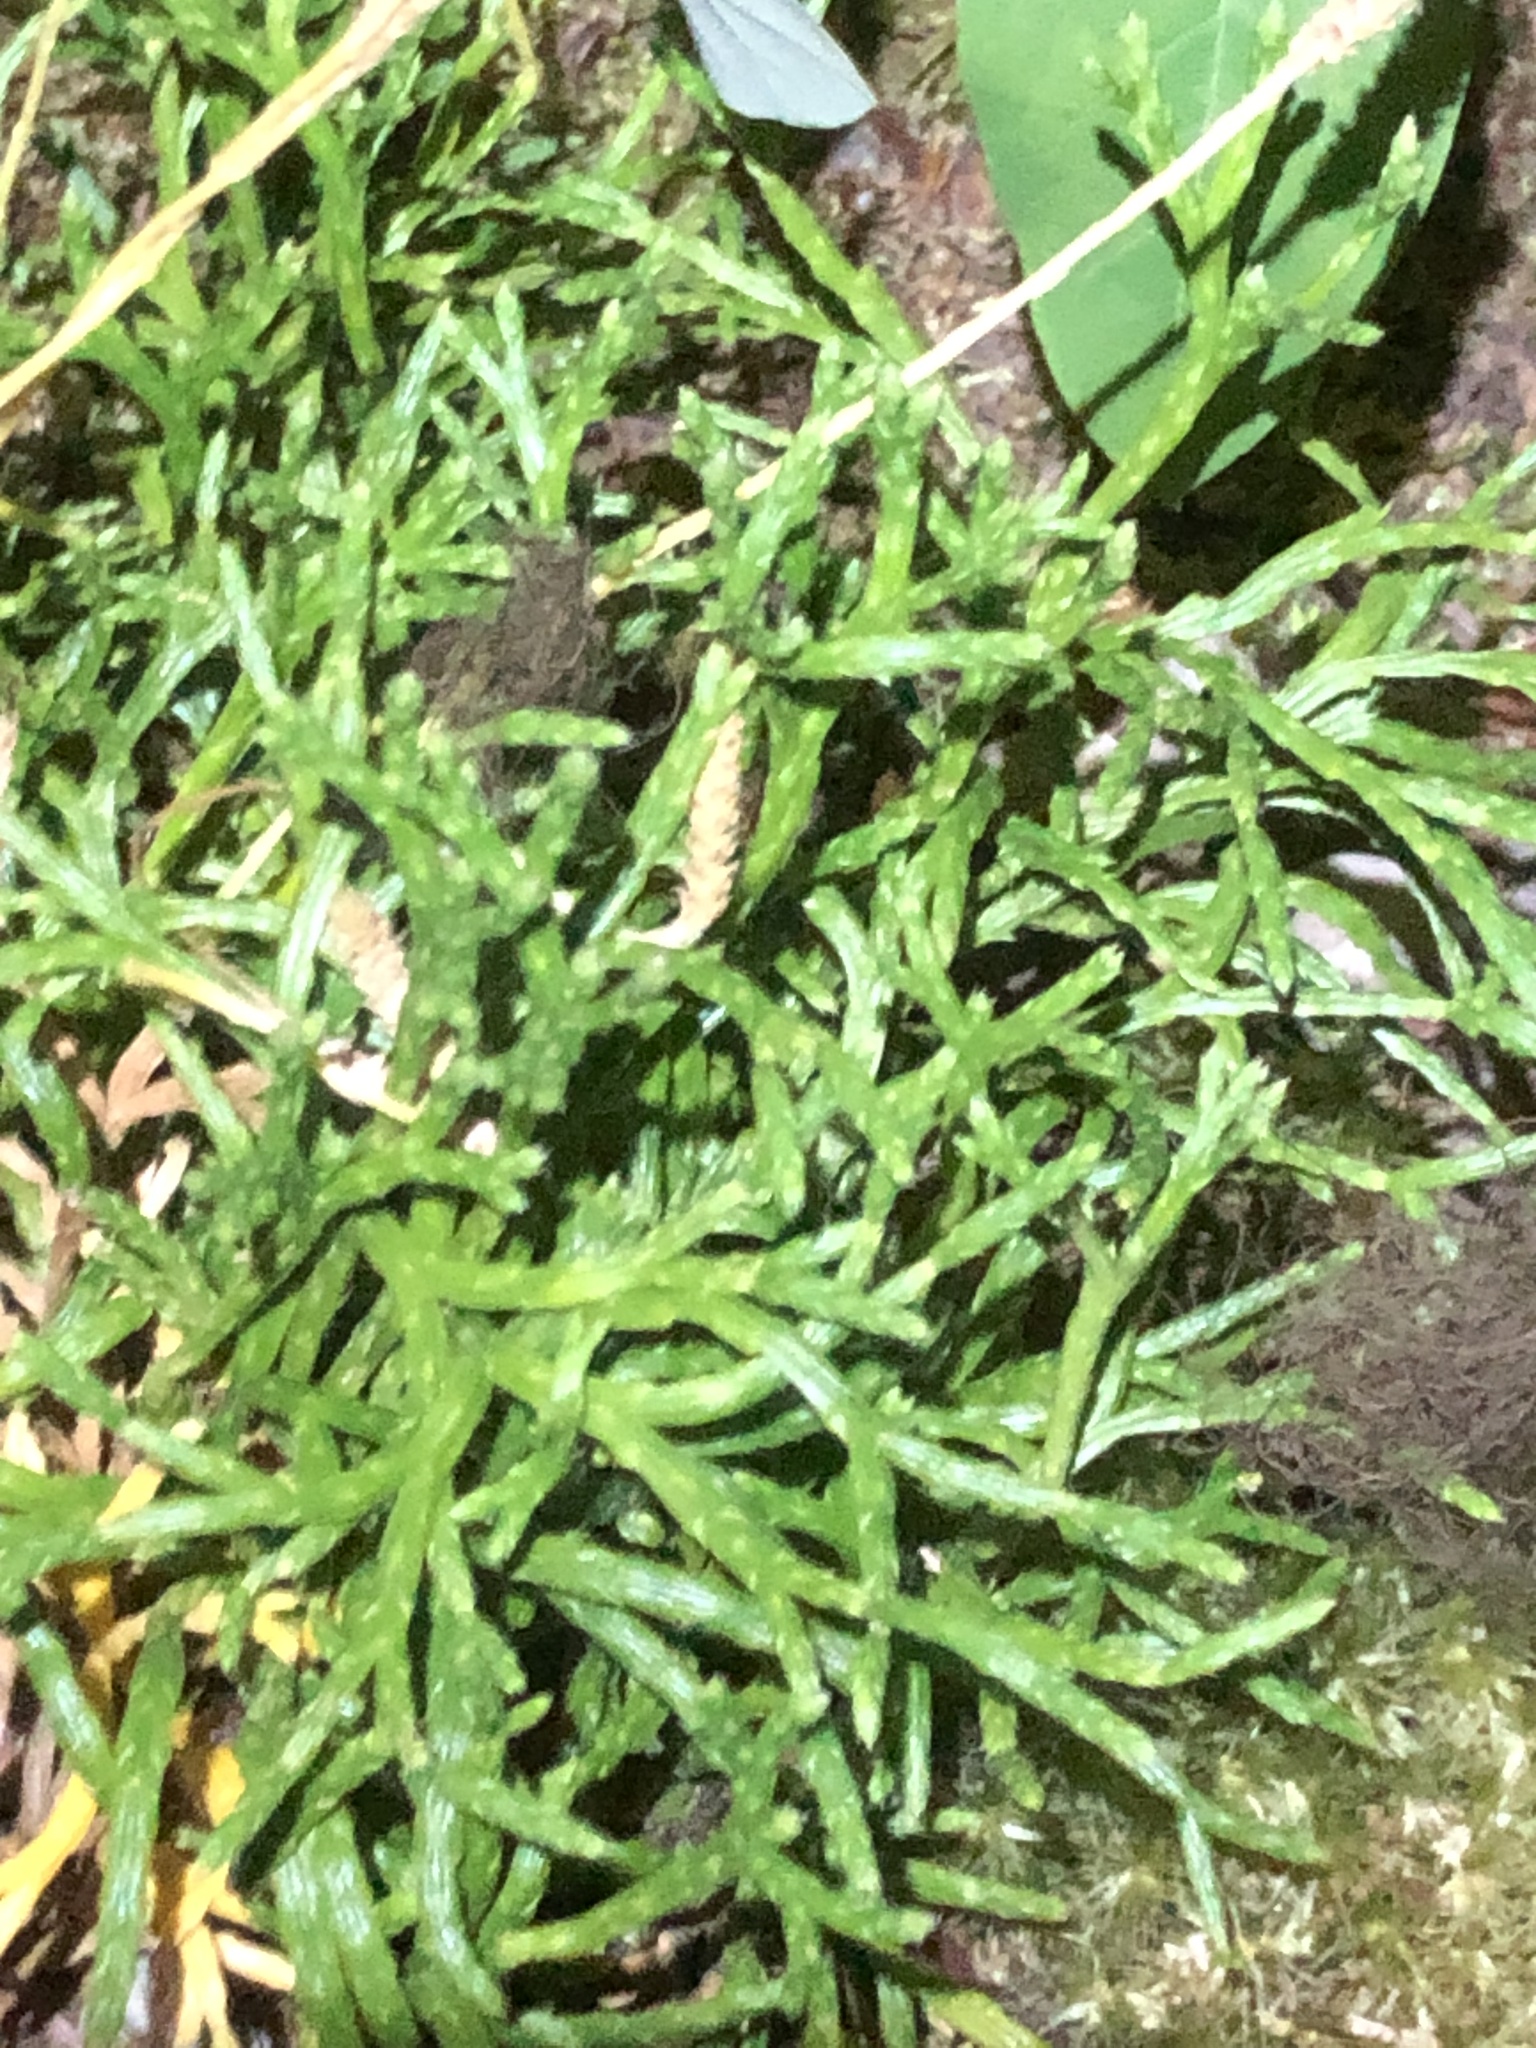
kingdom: Plantae
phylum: Tracheophyta
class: Lycopodiopsida
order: Lycopodiales
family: Lycopodiaceae
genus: Diphasiastrum
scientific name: Diphasiastrum complanatum
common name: Northern running-pine
